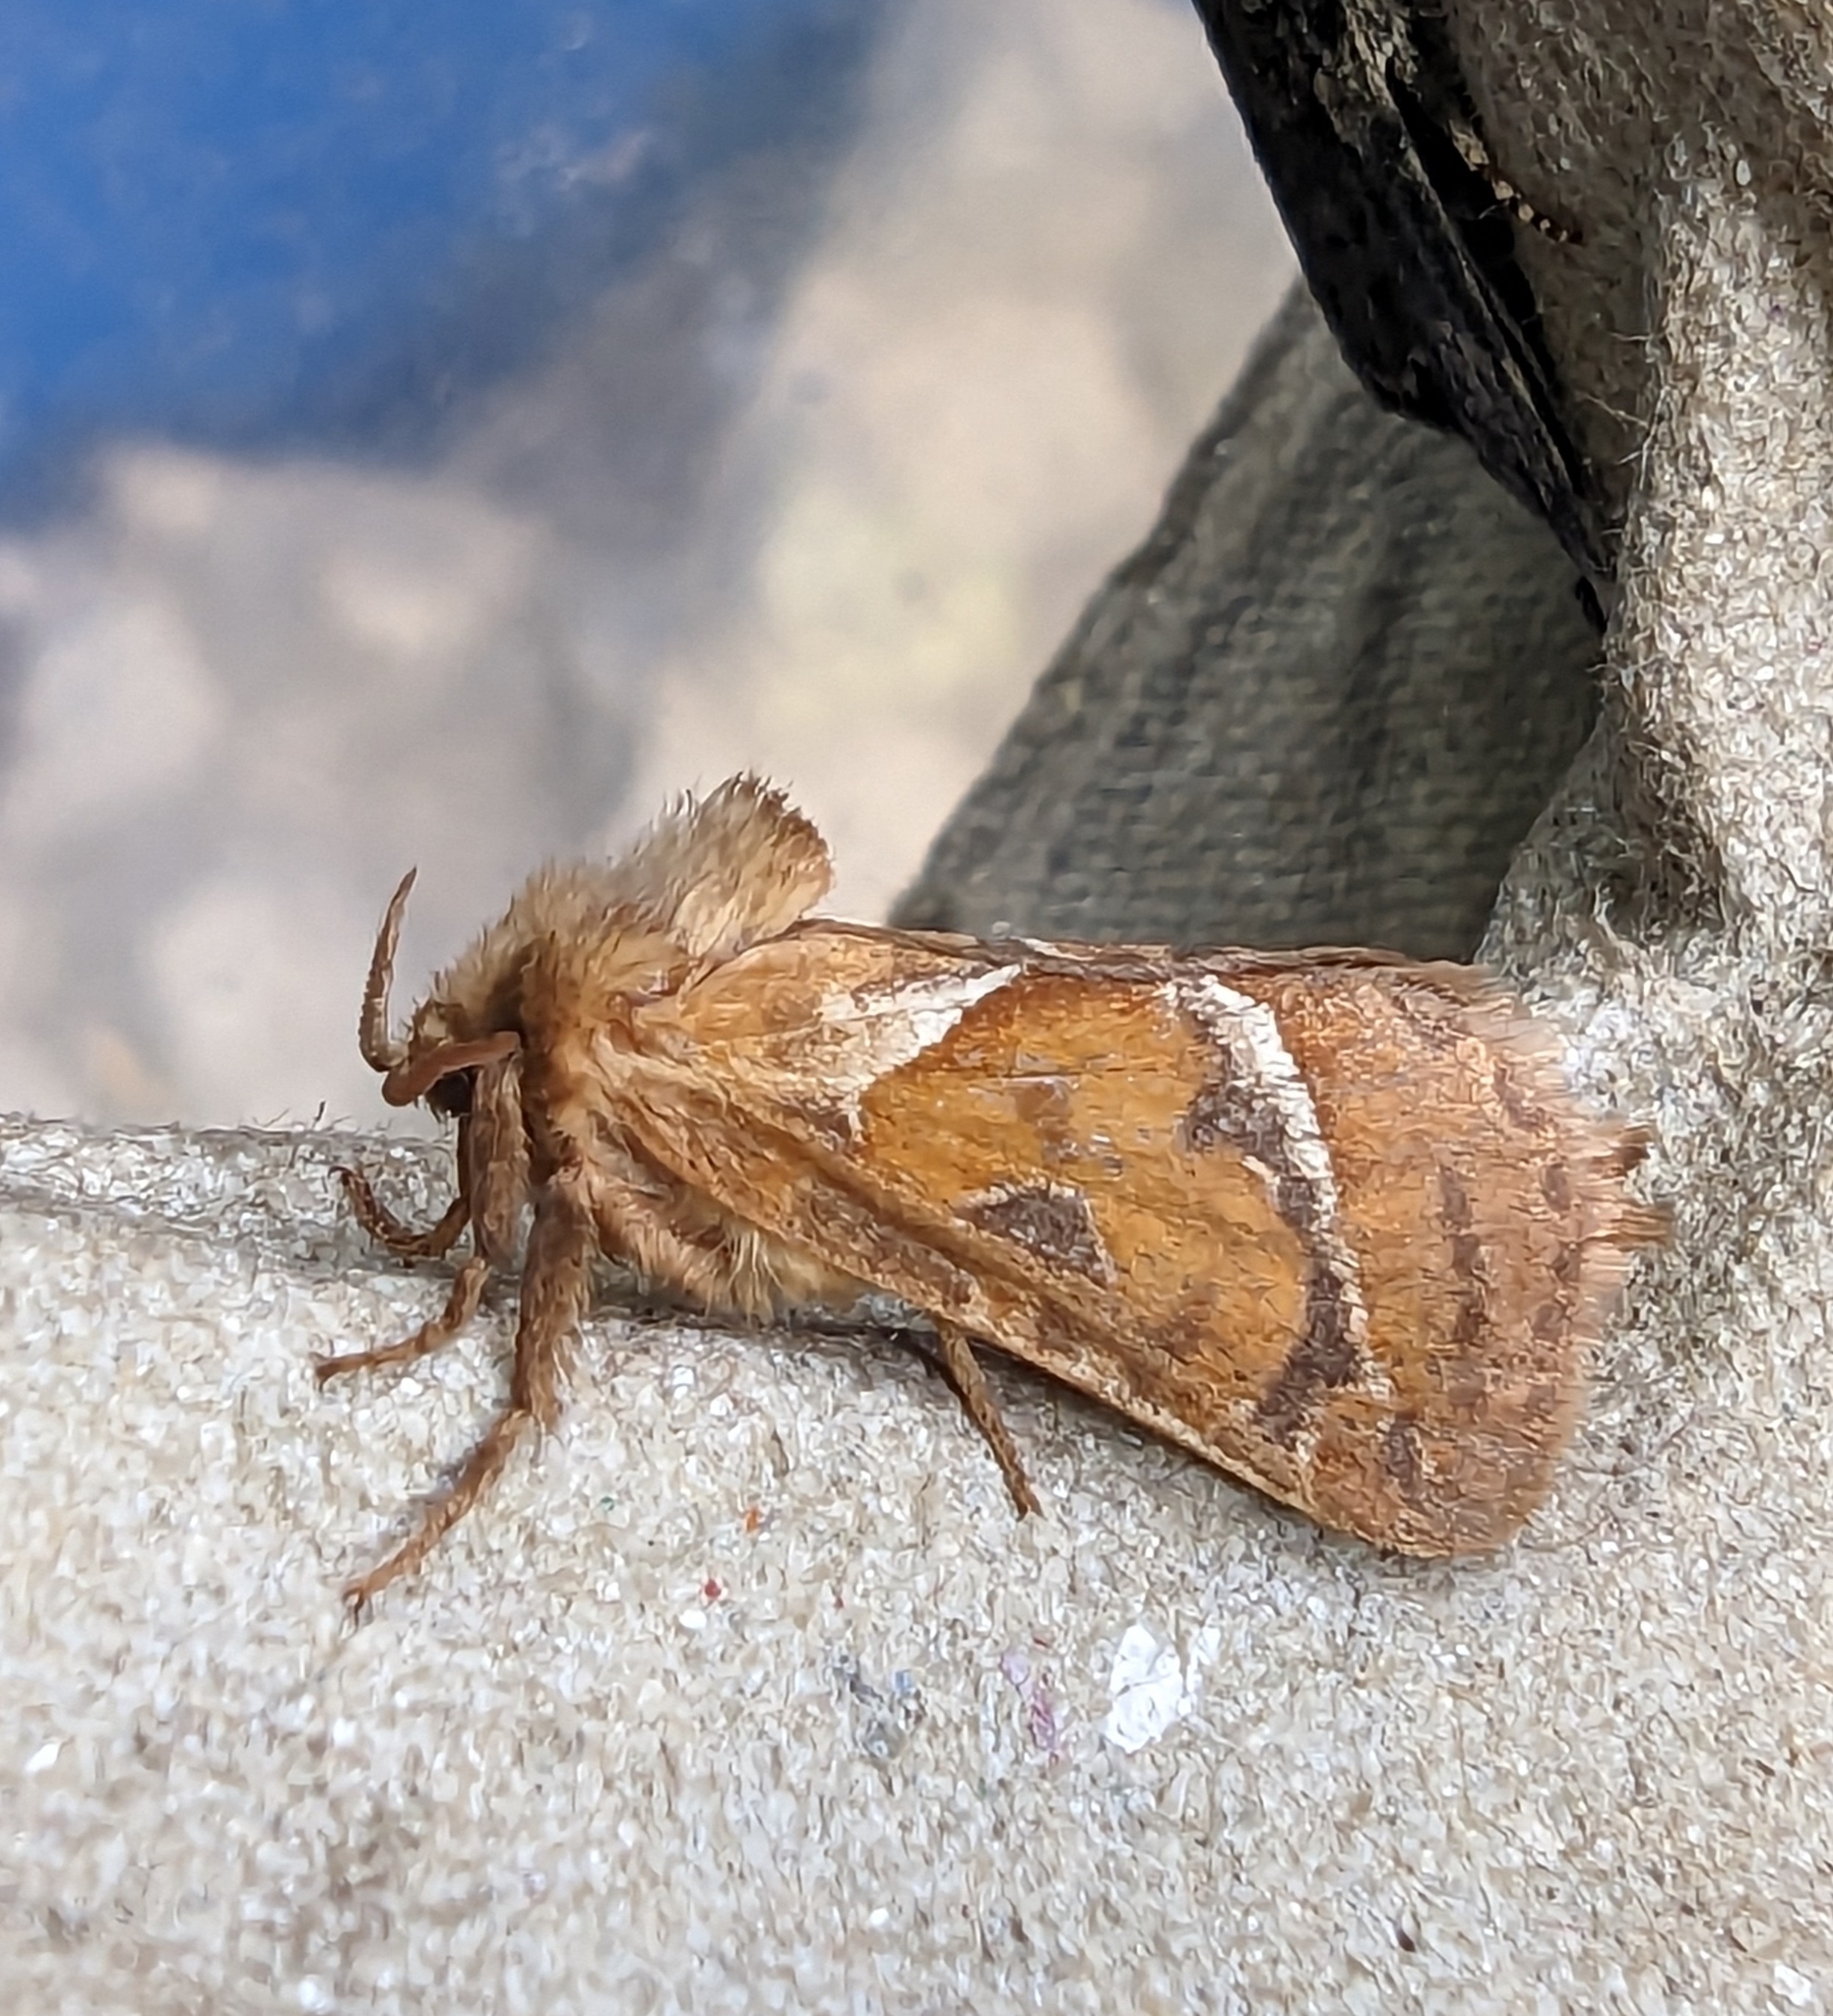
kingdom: Animalia
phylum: Arthropoda
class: Insecta
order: Lepidoptera
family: Hepialidae
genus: Triodia
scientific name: Triodia sylvina
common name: Orange swift
